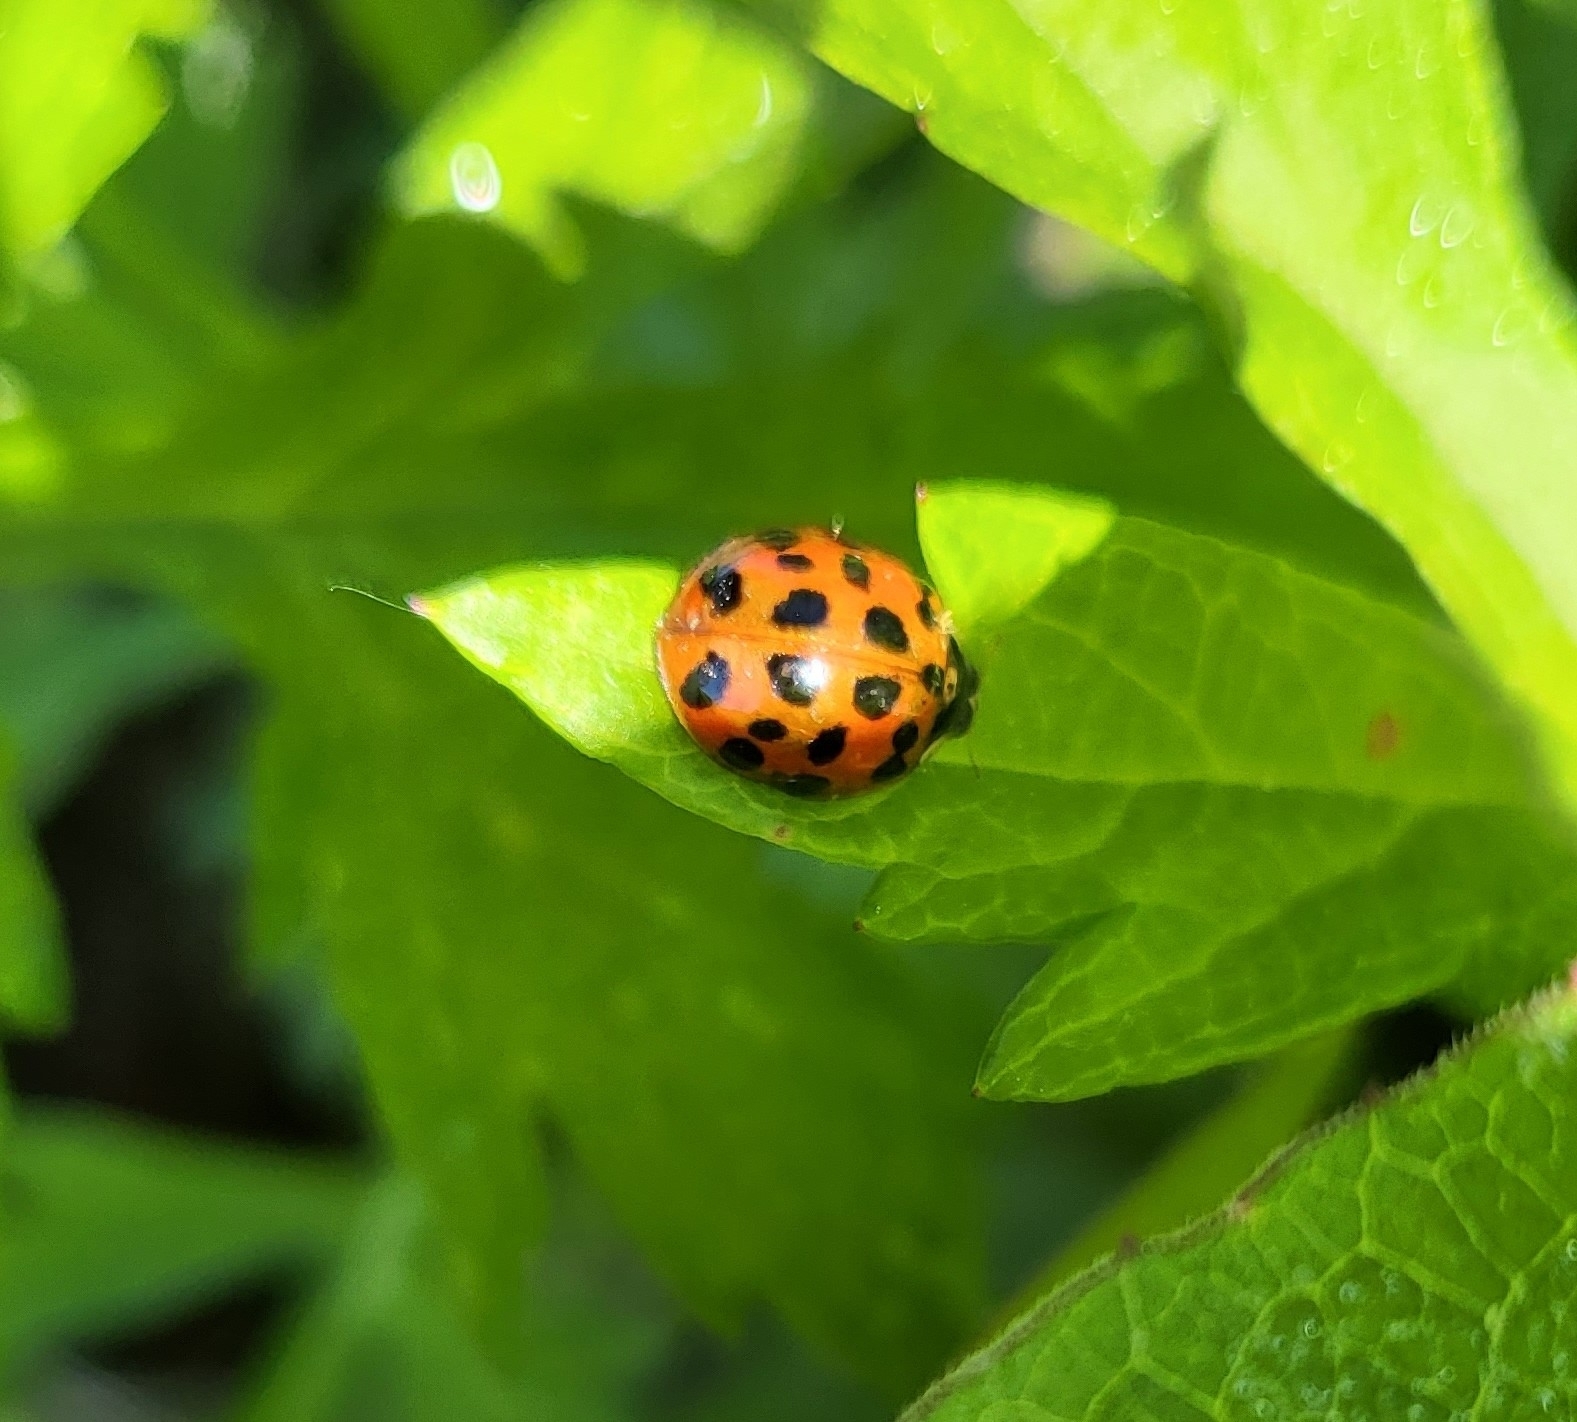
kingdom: Animalia
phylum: Arthropoda
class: Insecta
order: Coleoptera
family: Coccinellidae
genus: Harmonia
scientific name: Harmonia axyridis
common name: Harlequin ladybird
